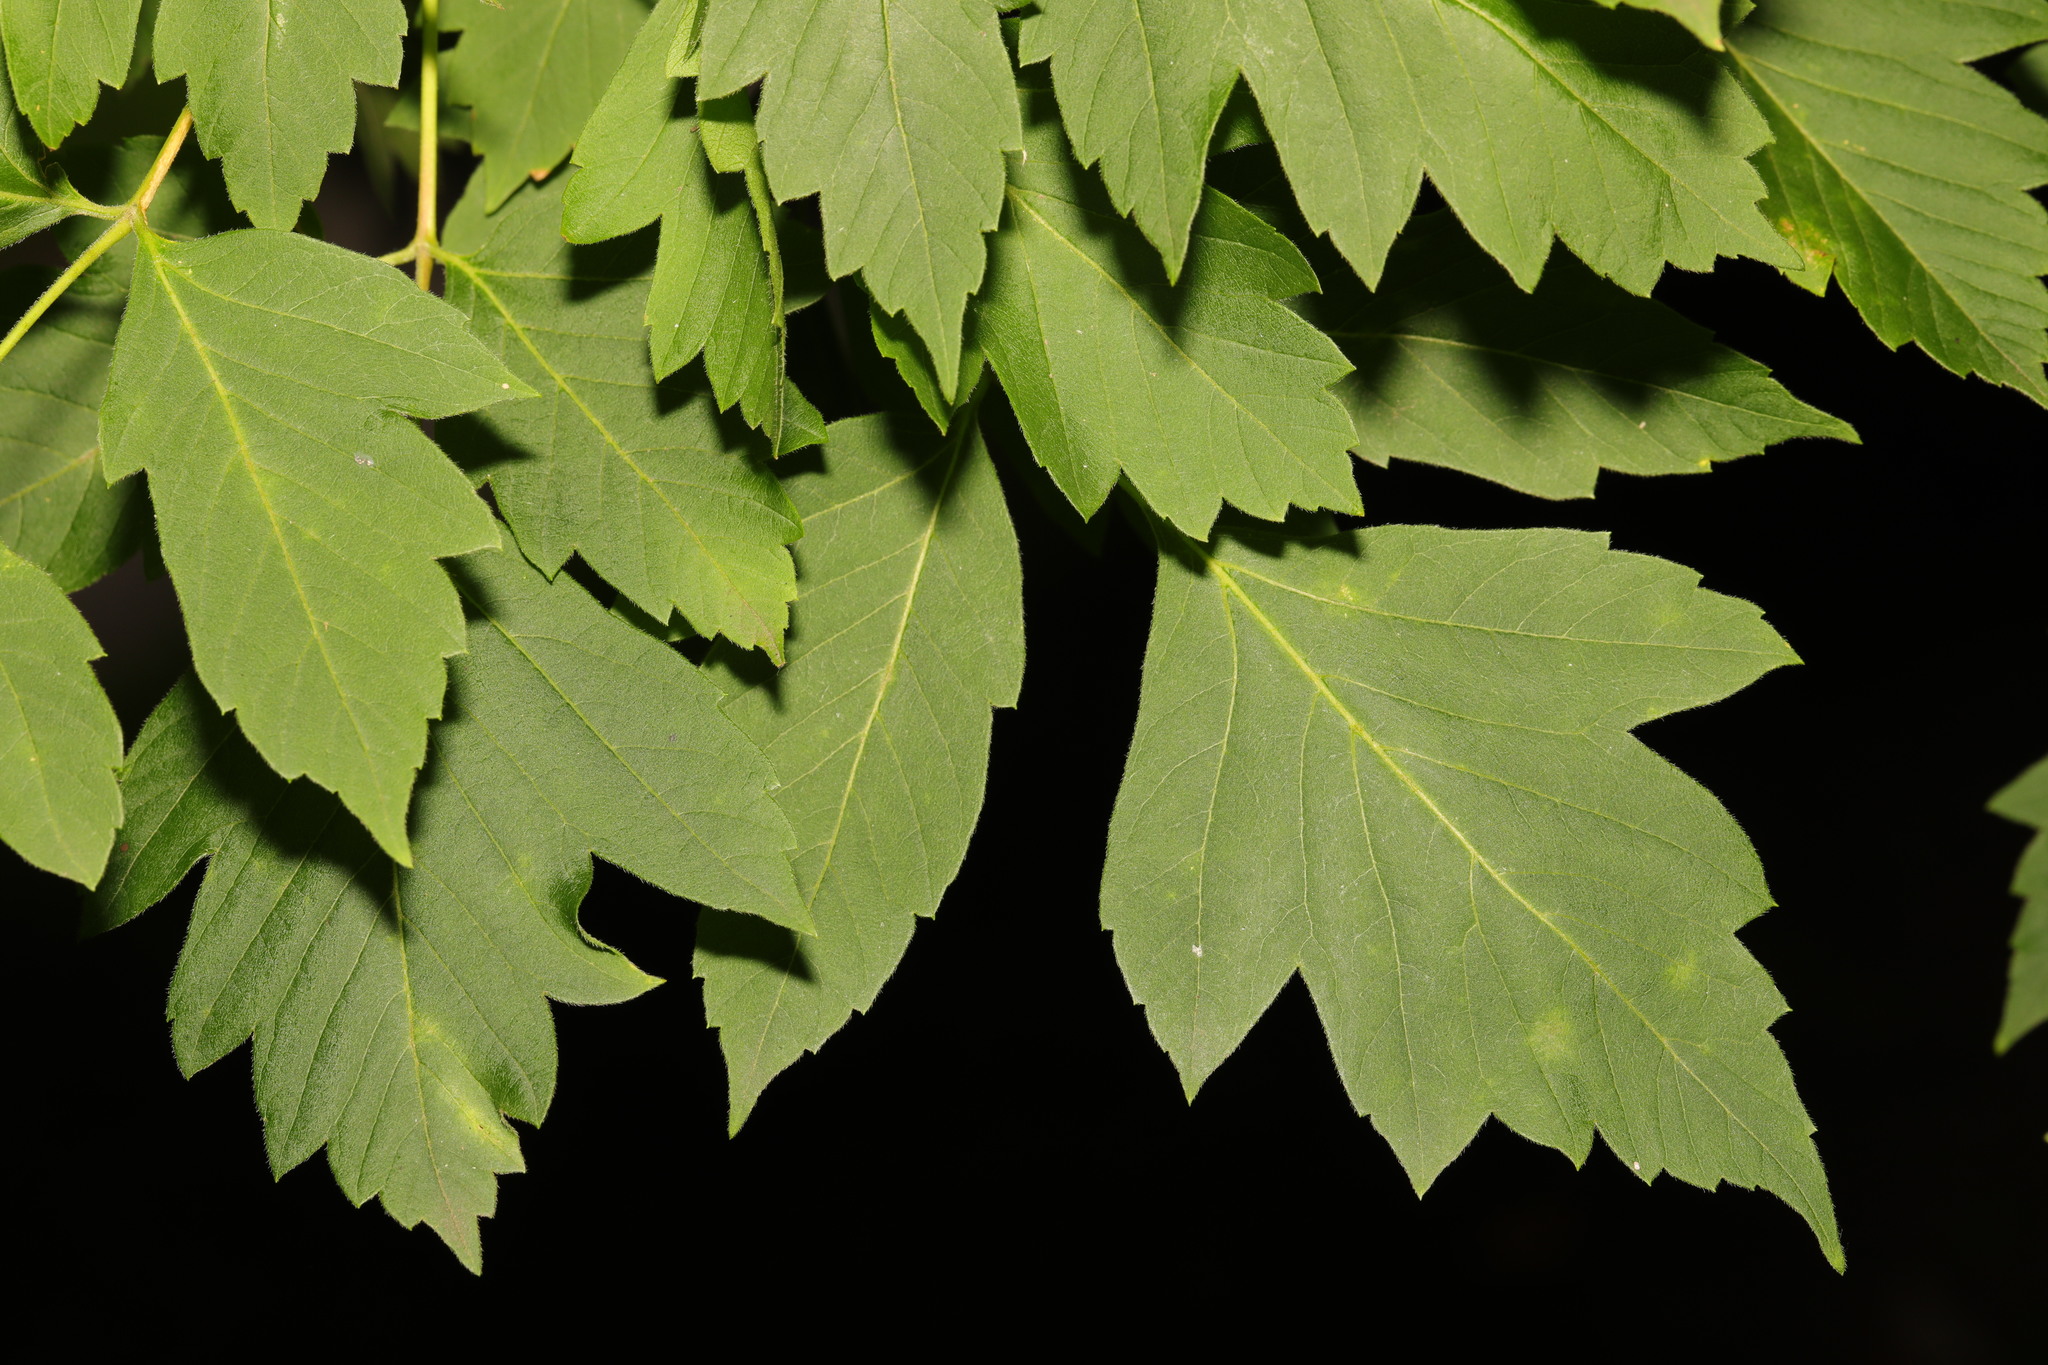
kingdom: Plantae
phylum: Tracheophyta
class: Magnoliopsida
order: Sapindales
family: Sapindaceae
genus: Acer
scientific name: Acer negundo
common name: Ashleaf maple
